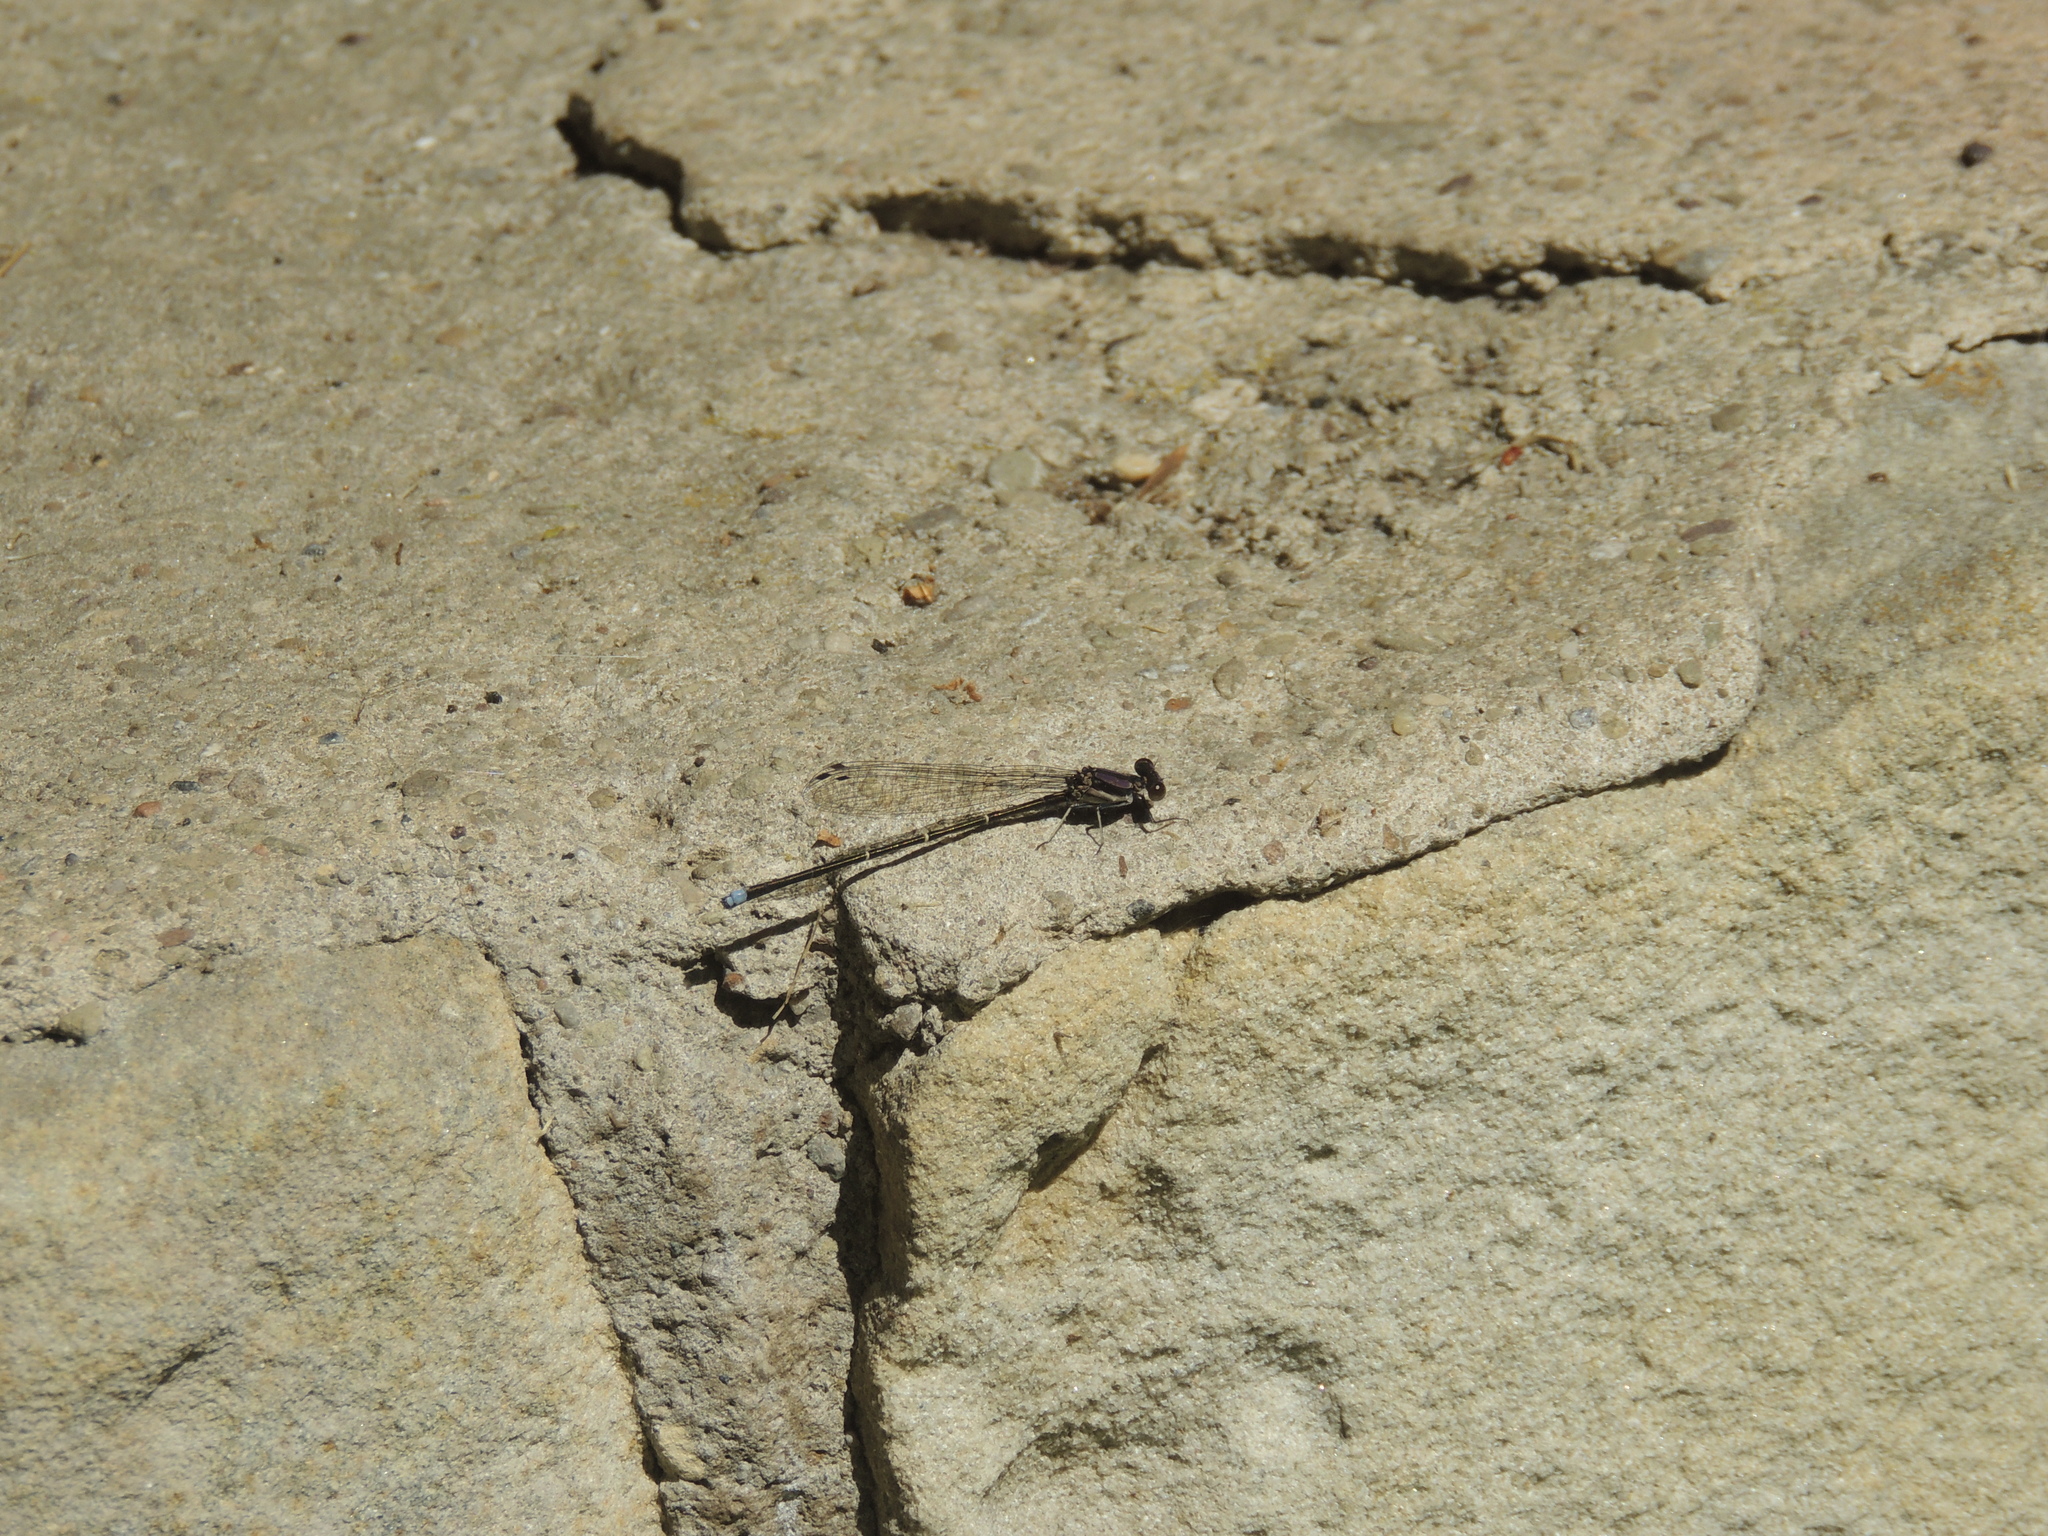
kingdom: Animalia
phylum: Arthropoda
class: Insecta
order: Odonata
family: Coenagrionidae
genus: Argia
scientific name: Argia tibialis
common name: Blue-tipped dancer
